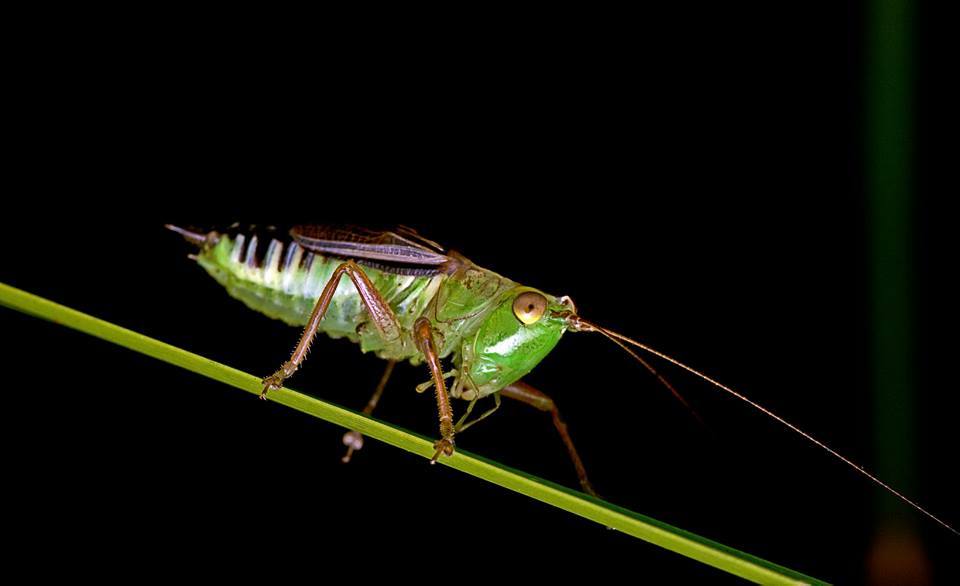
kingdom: Animalia
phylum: Arthropoda
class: Insecta
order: Orthoptera
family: Tettigoniidae
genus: Conocephalus
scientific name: Conocephalus semivittatus
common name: Blackish meadow katydid
